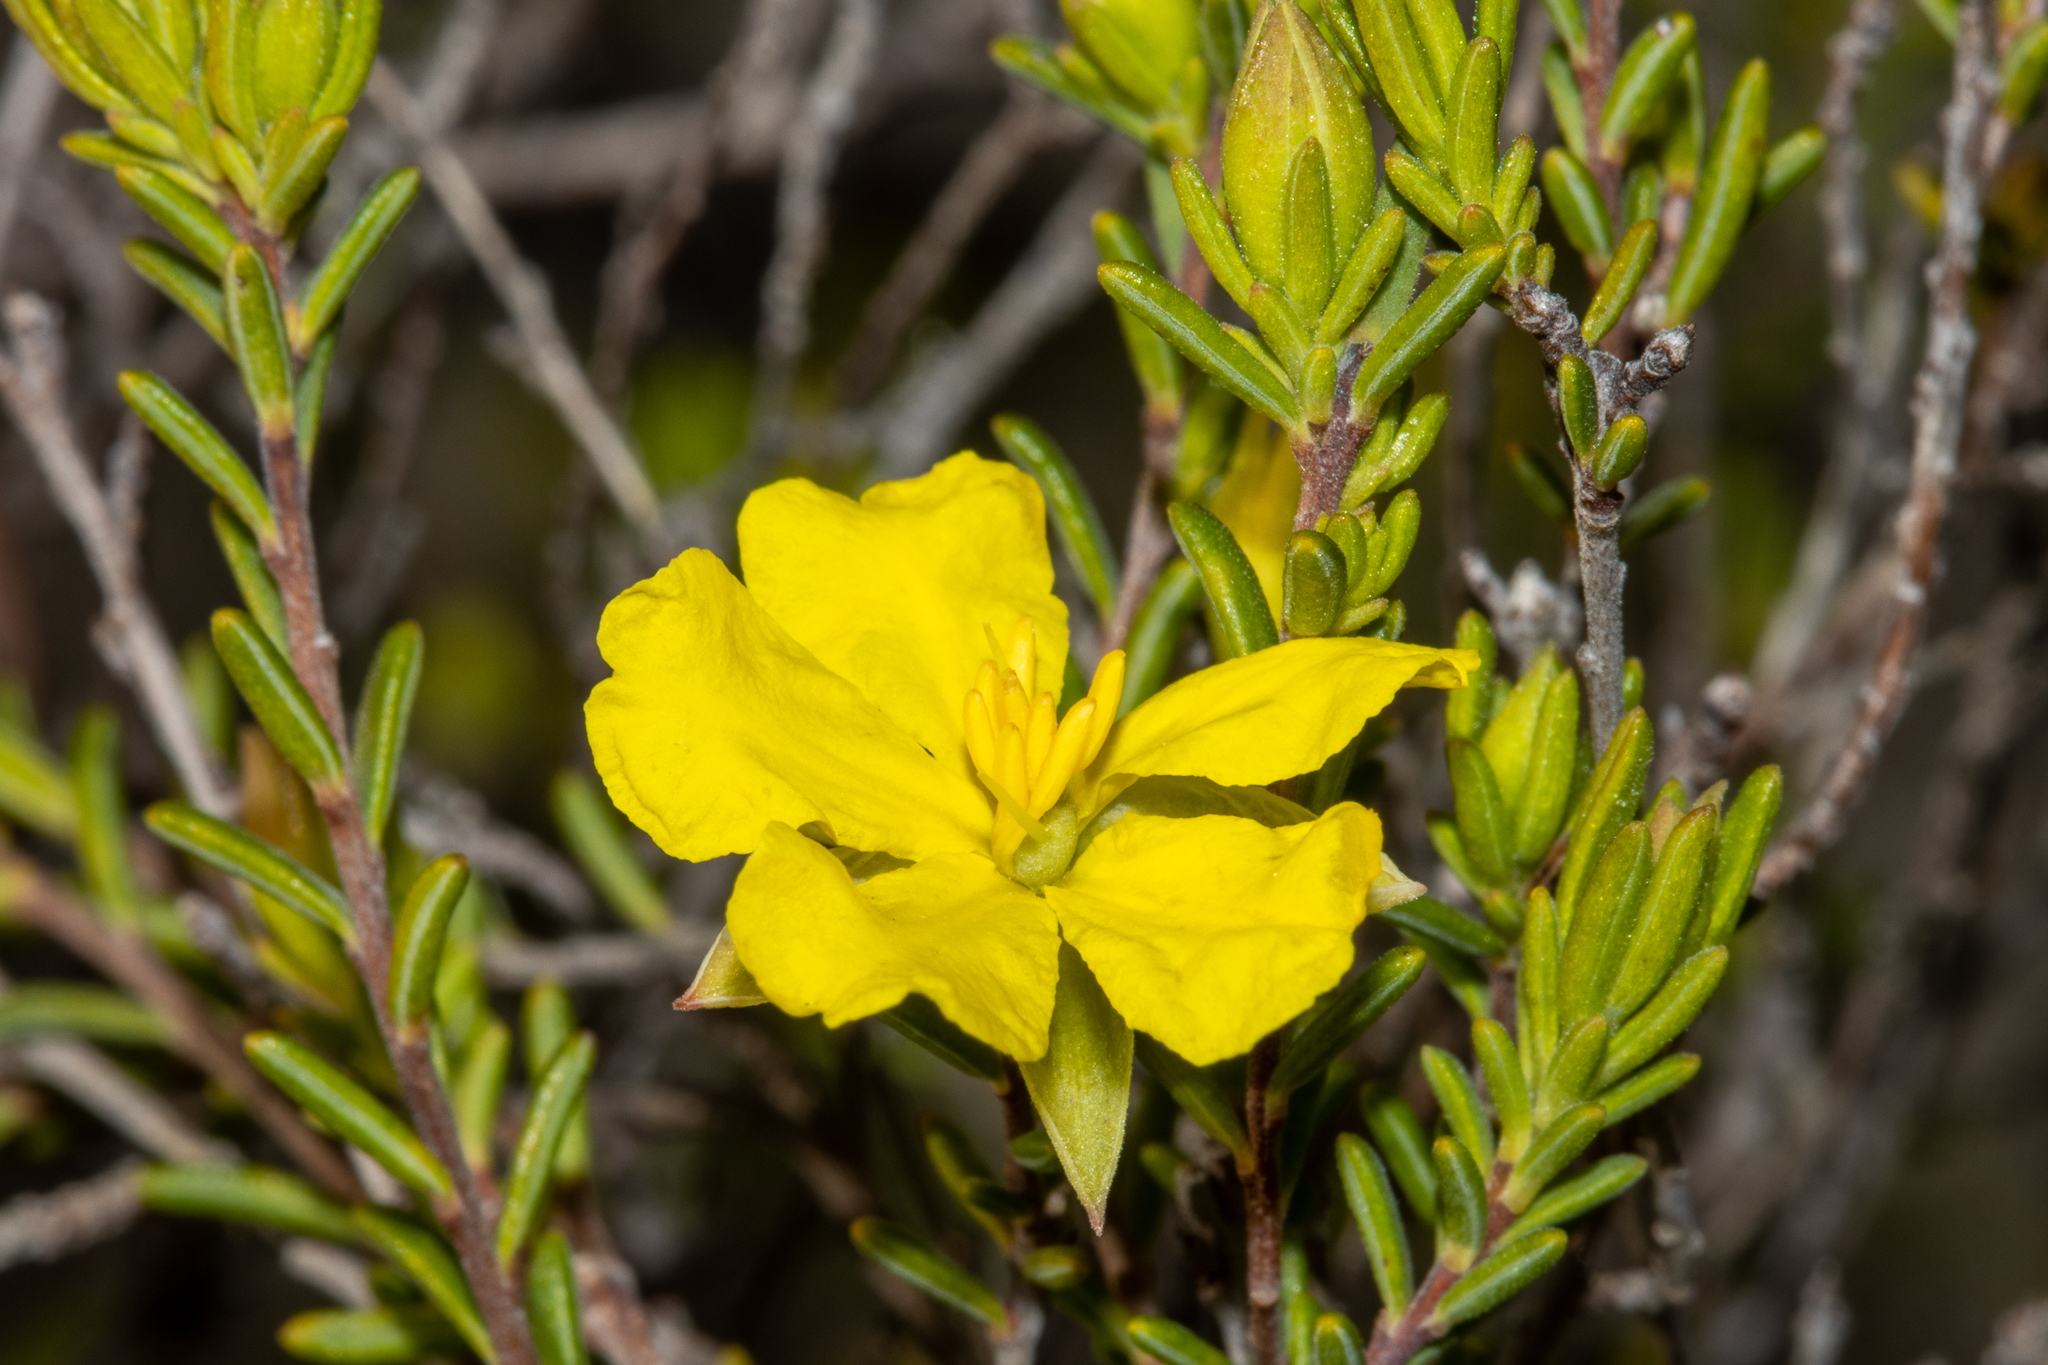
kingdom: Plantae
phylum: Tracheophyta
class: Magnoliopsida
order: Dilleniales
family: Dilleniaceae
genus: Hibbertia
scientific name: Hibbertia devitata
